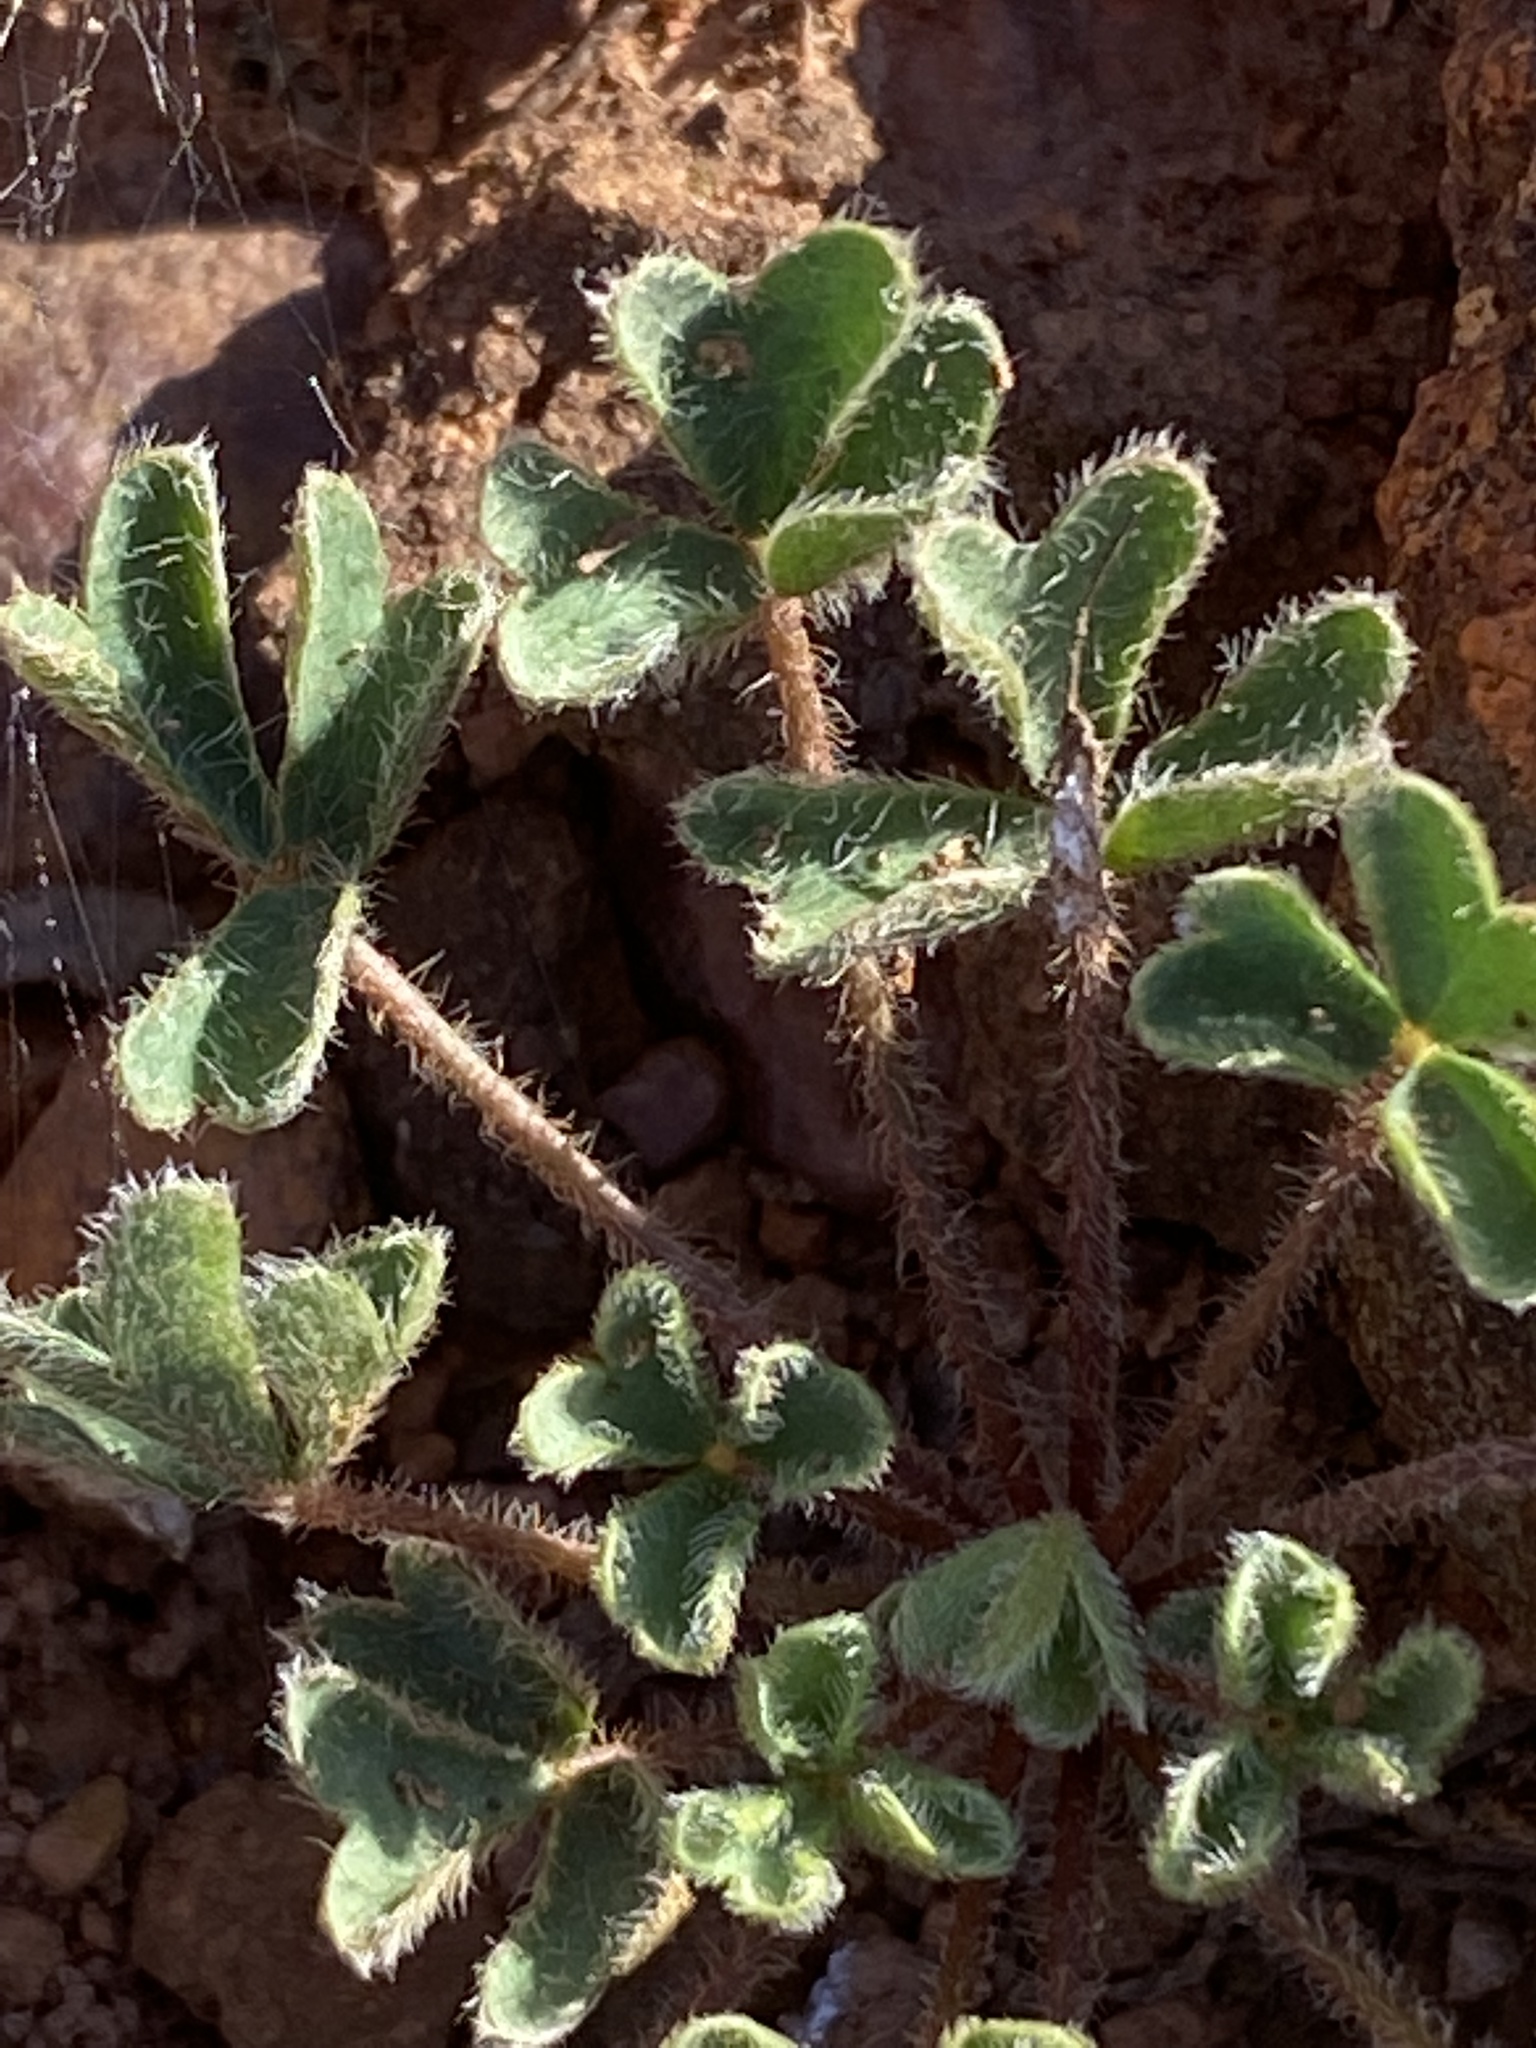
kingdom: Plantae
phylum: Tracheophyta
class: Magnoliopsida
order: Oxalidales
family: Oxalidaceae
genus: Oxalis
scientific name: Oxalis imbricata
